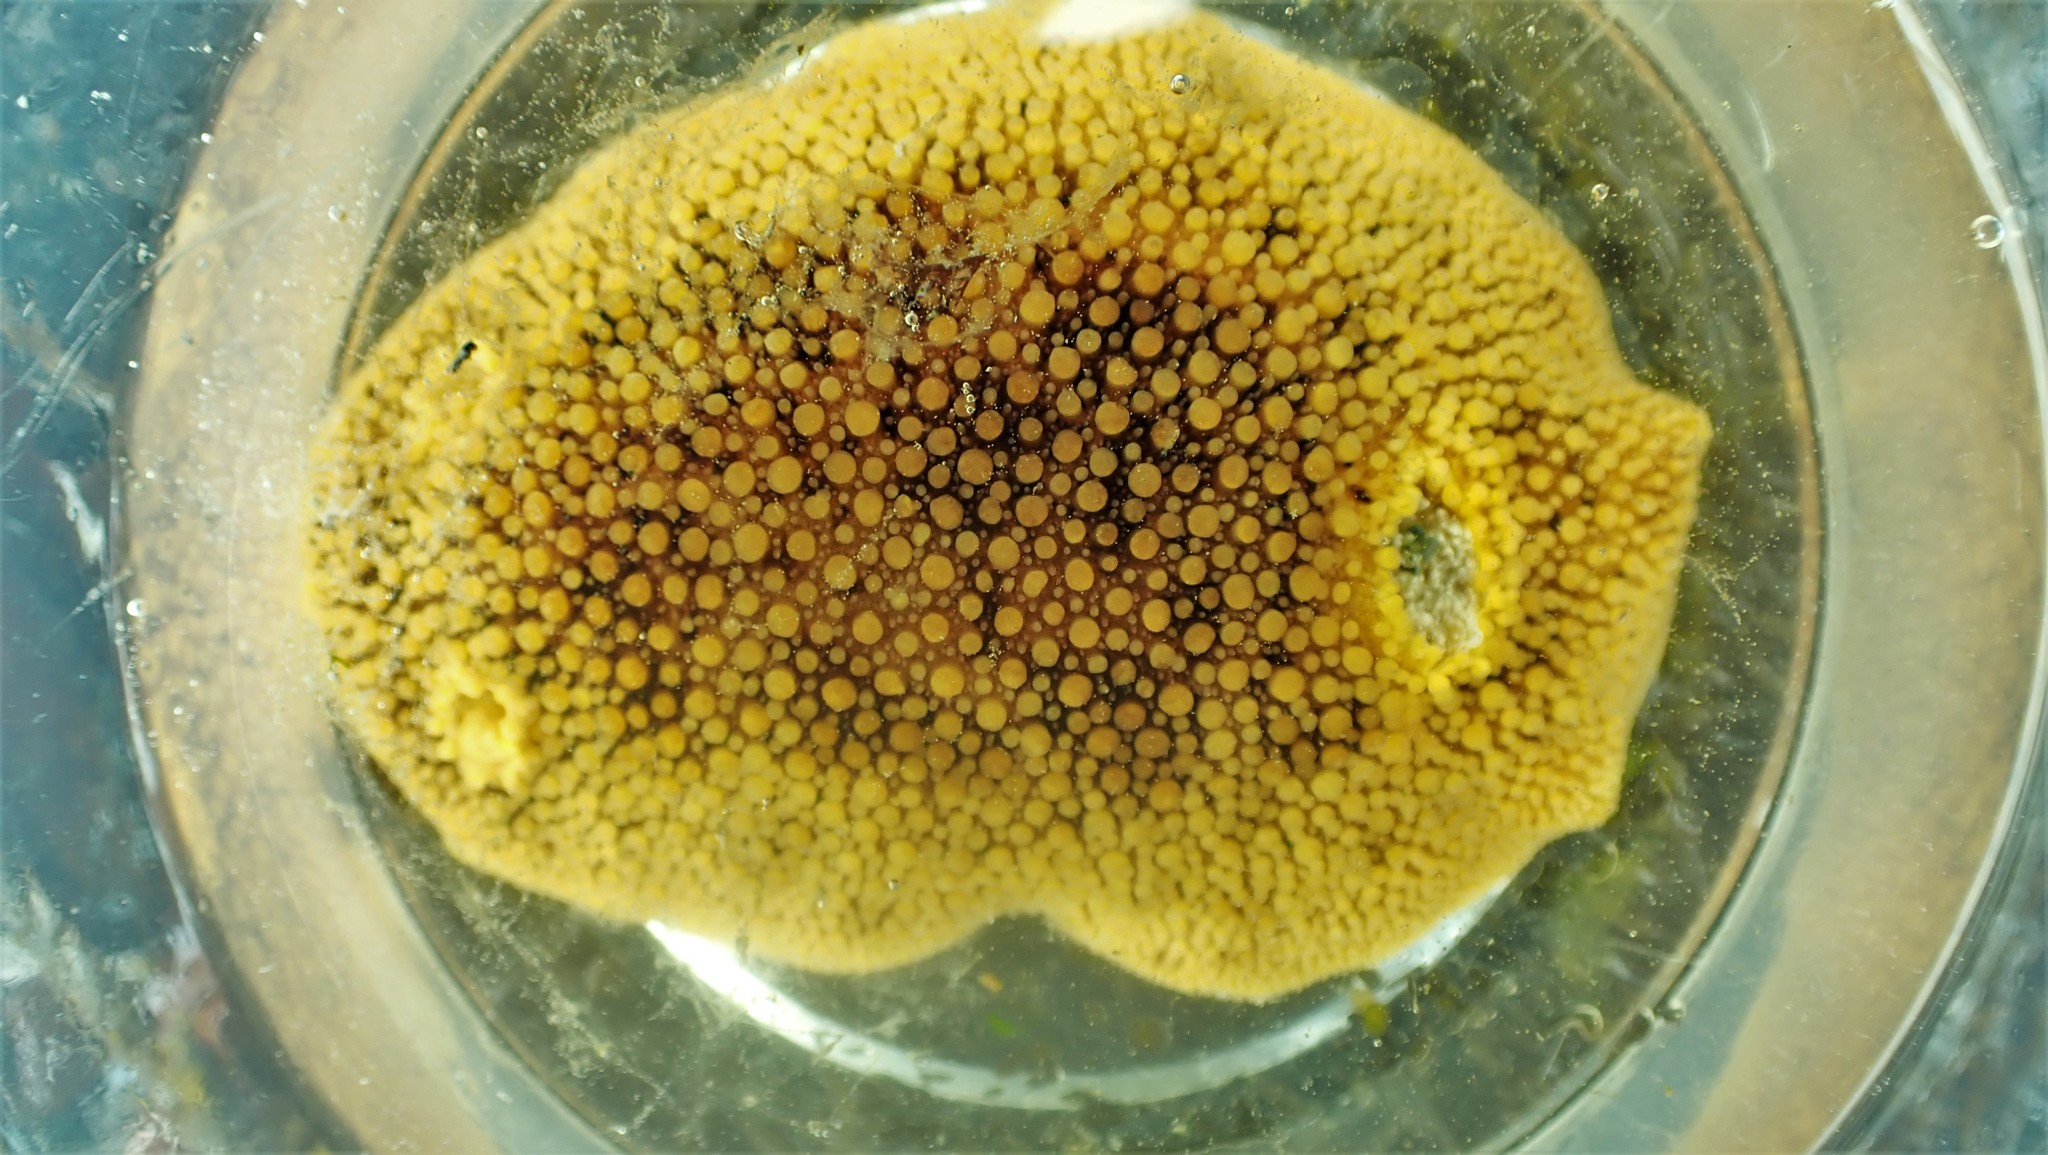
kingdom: Animalia
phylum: Mollusca
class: Gastropoda
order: Nudibranchia
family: Discodorididae
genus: Peltodoris
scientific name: Peltodoris nobilis
